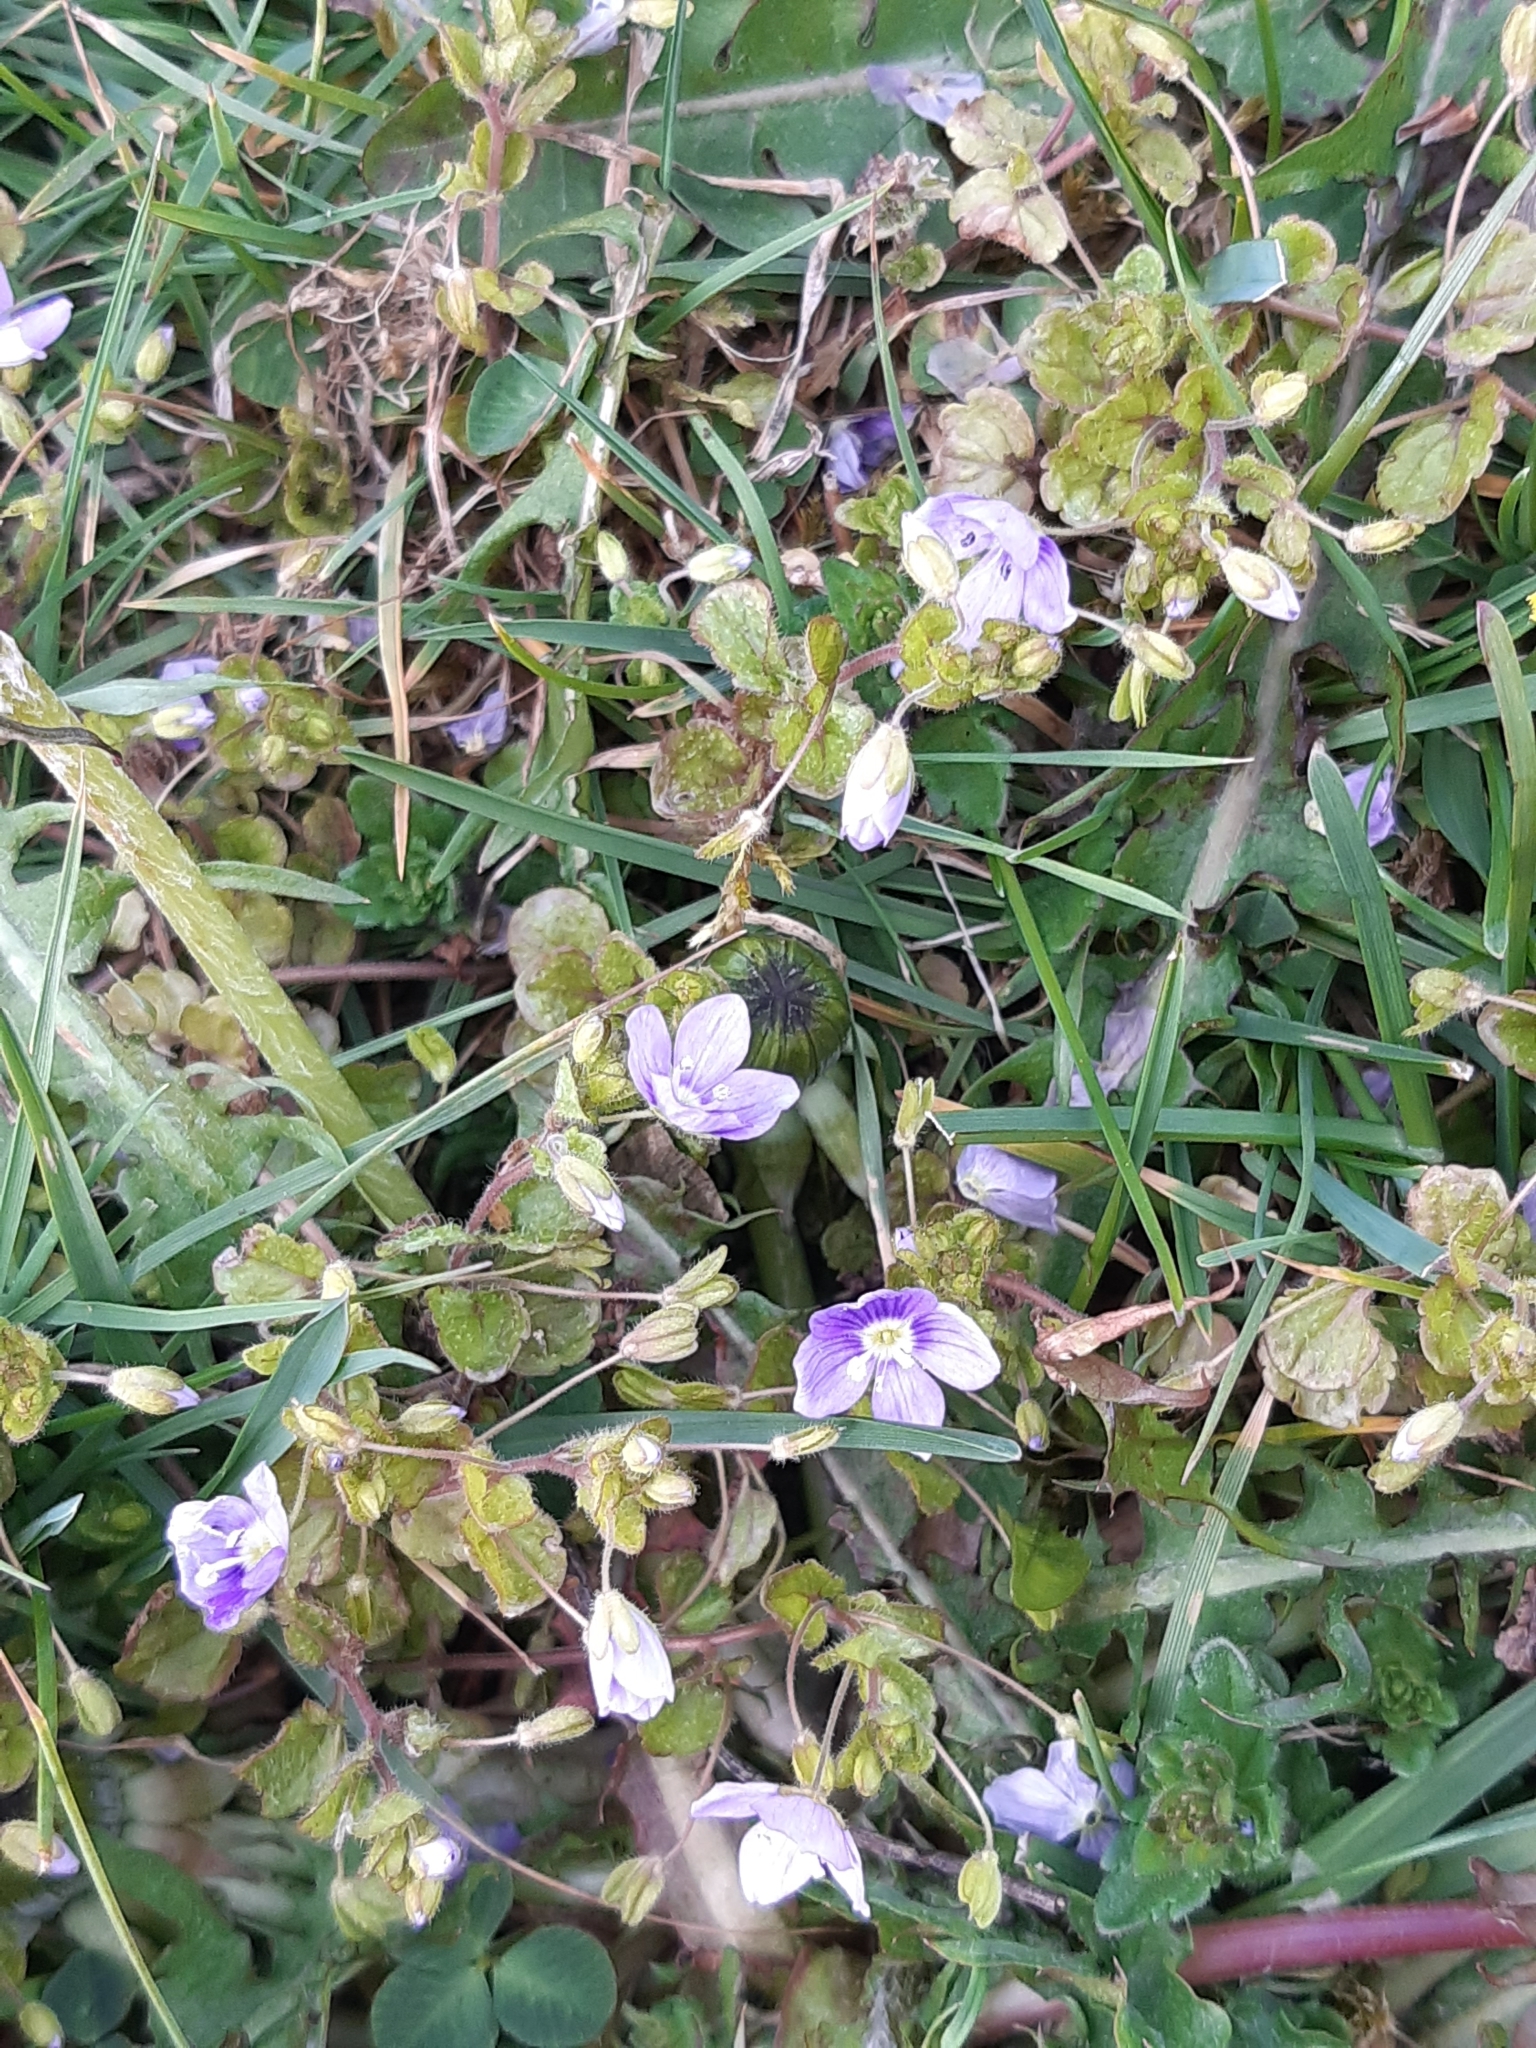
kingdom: Plantae
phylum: Tracheophyta
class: Magnoliopsida
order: Lamiales
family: Plantaginaceae
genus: Veronica
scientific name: Veronica filiformis
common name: Slender speedwell
